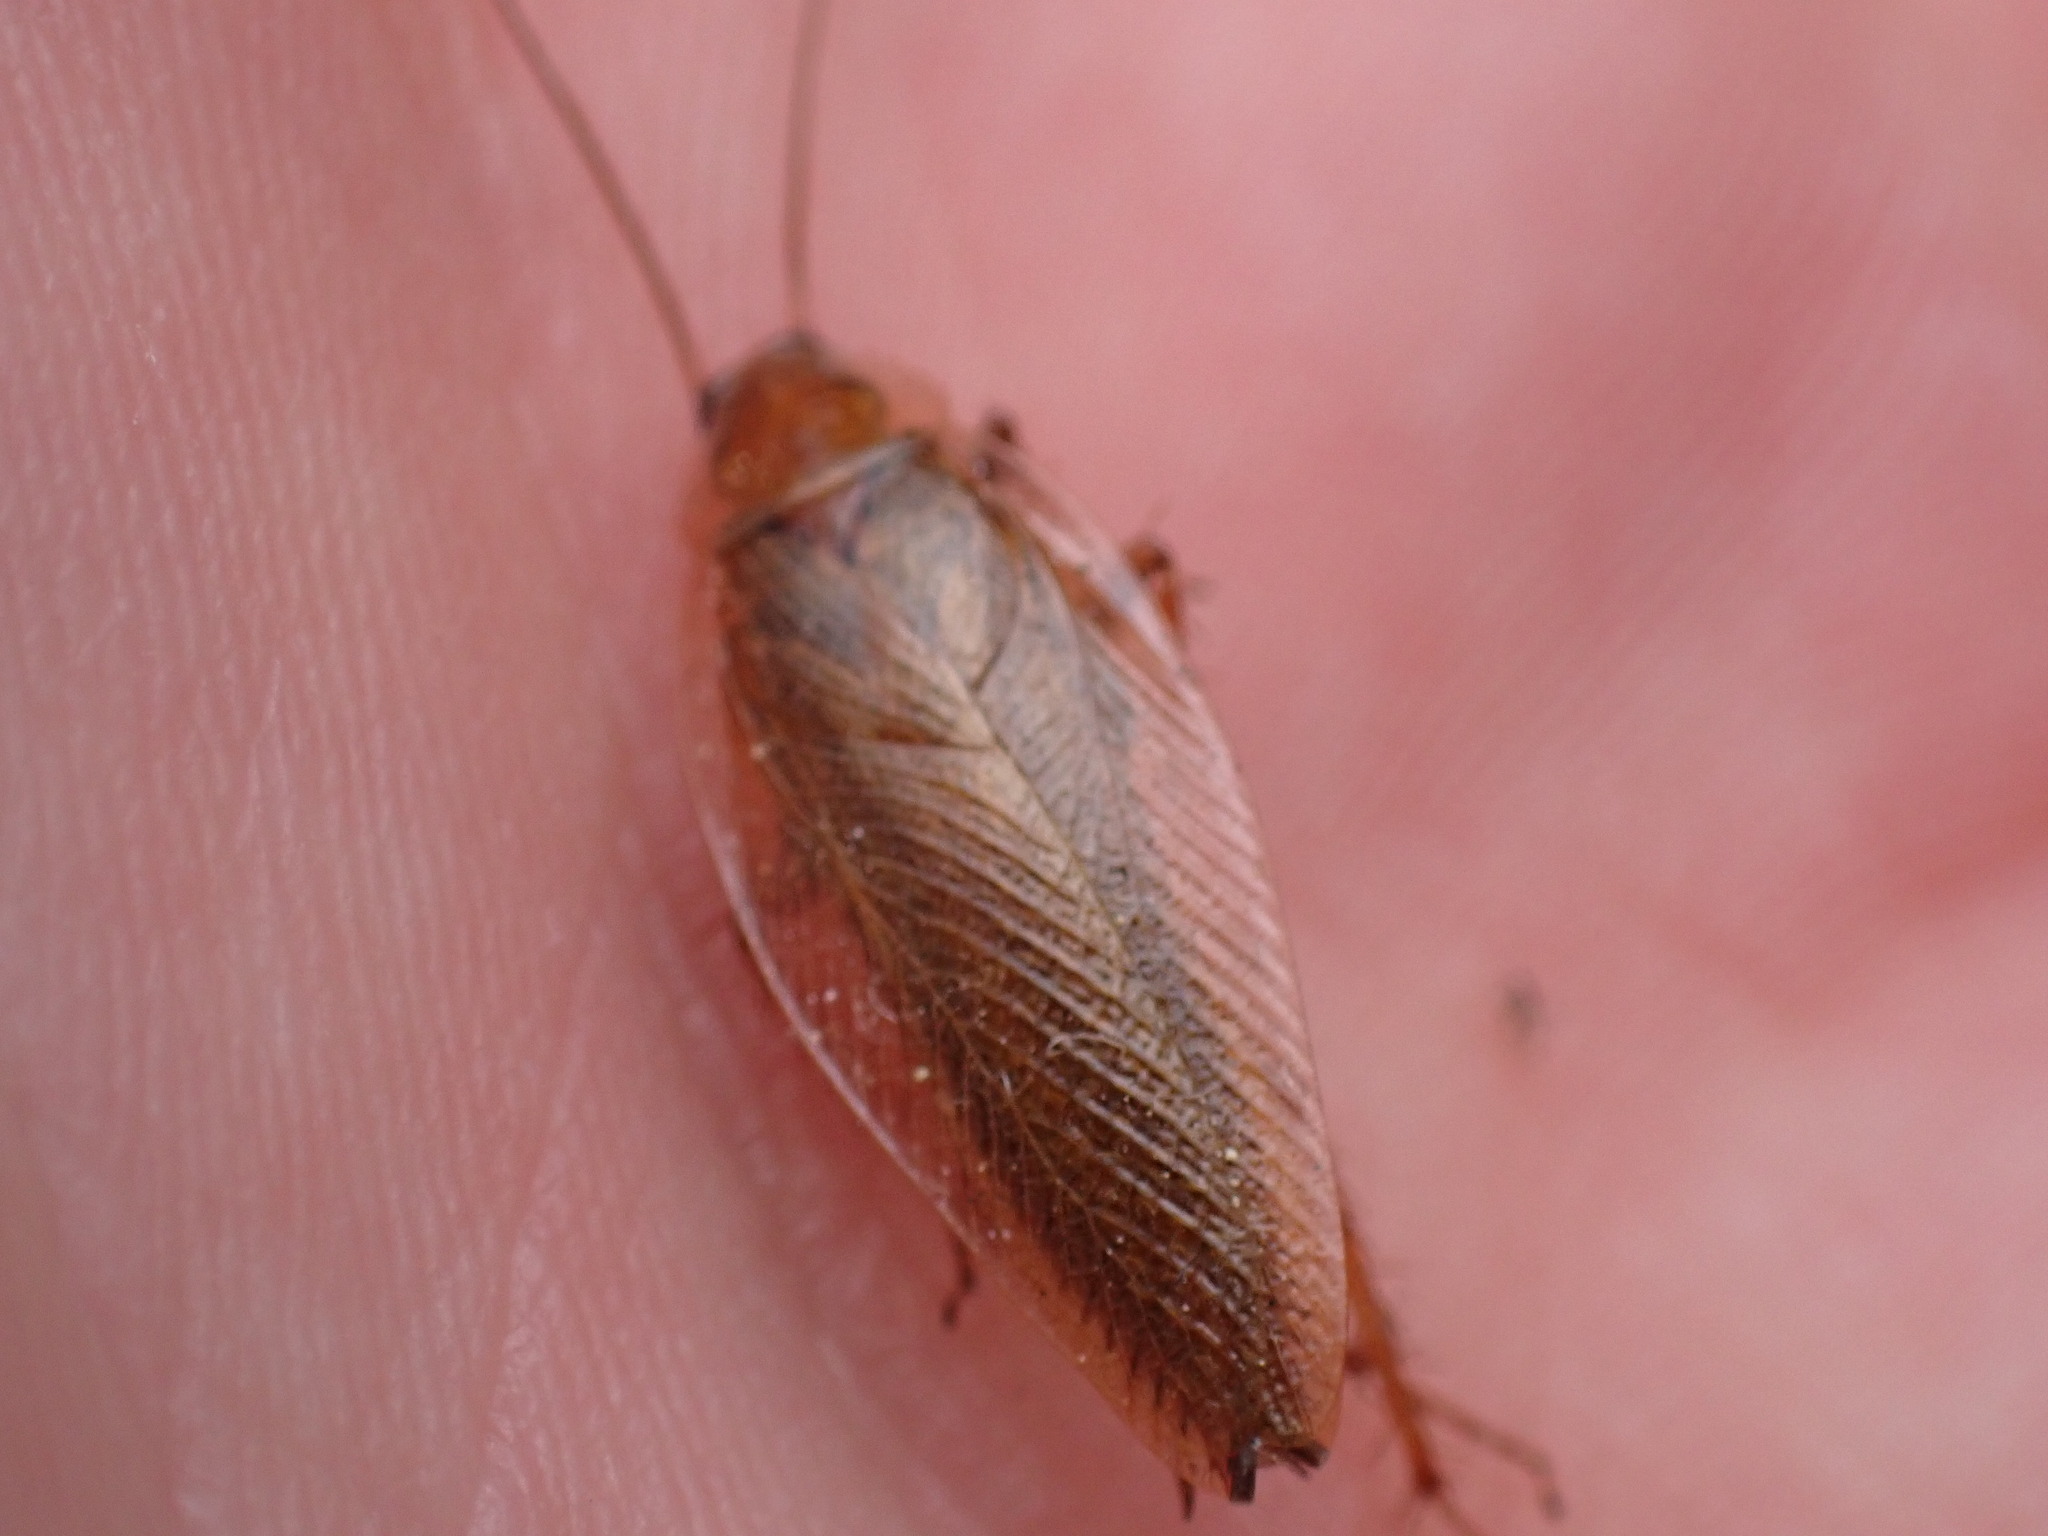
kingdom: Animalia
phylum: Arthropoda
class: Insecta
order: Blattodea
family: Ectobiidae
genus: Ectobius
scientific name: Ectobius vittiventris
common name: Garden cockroach
